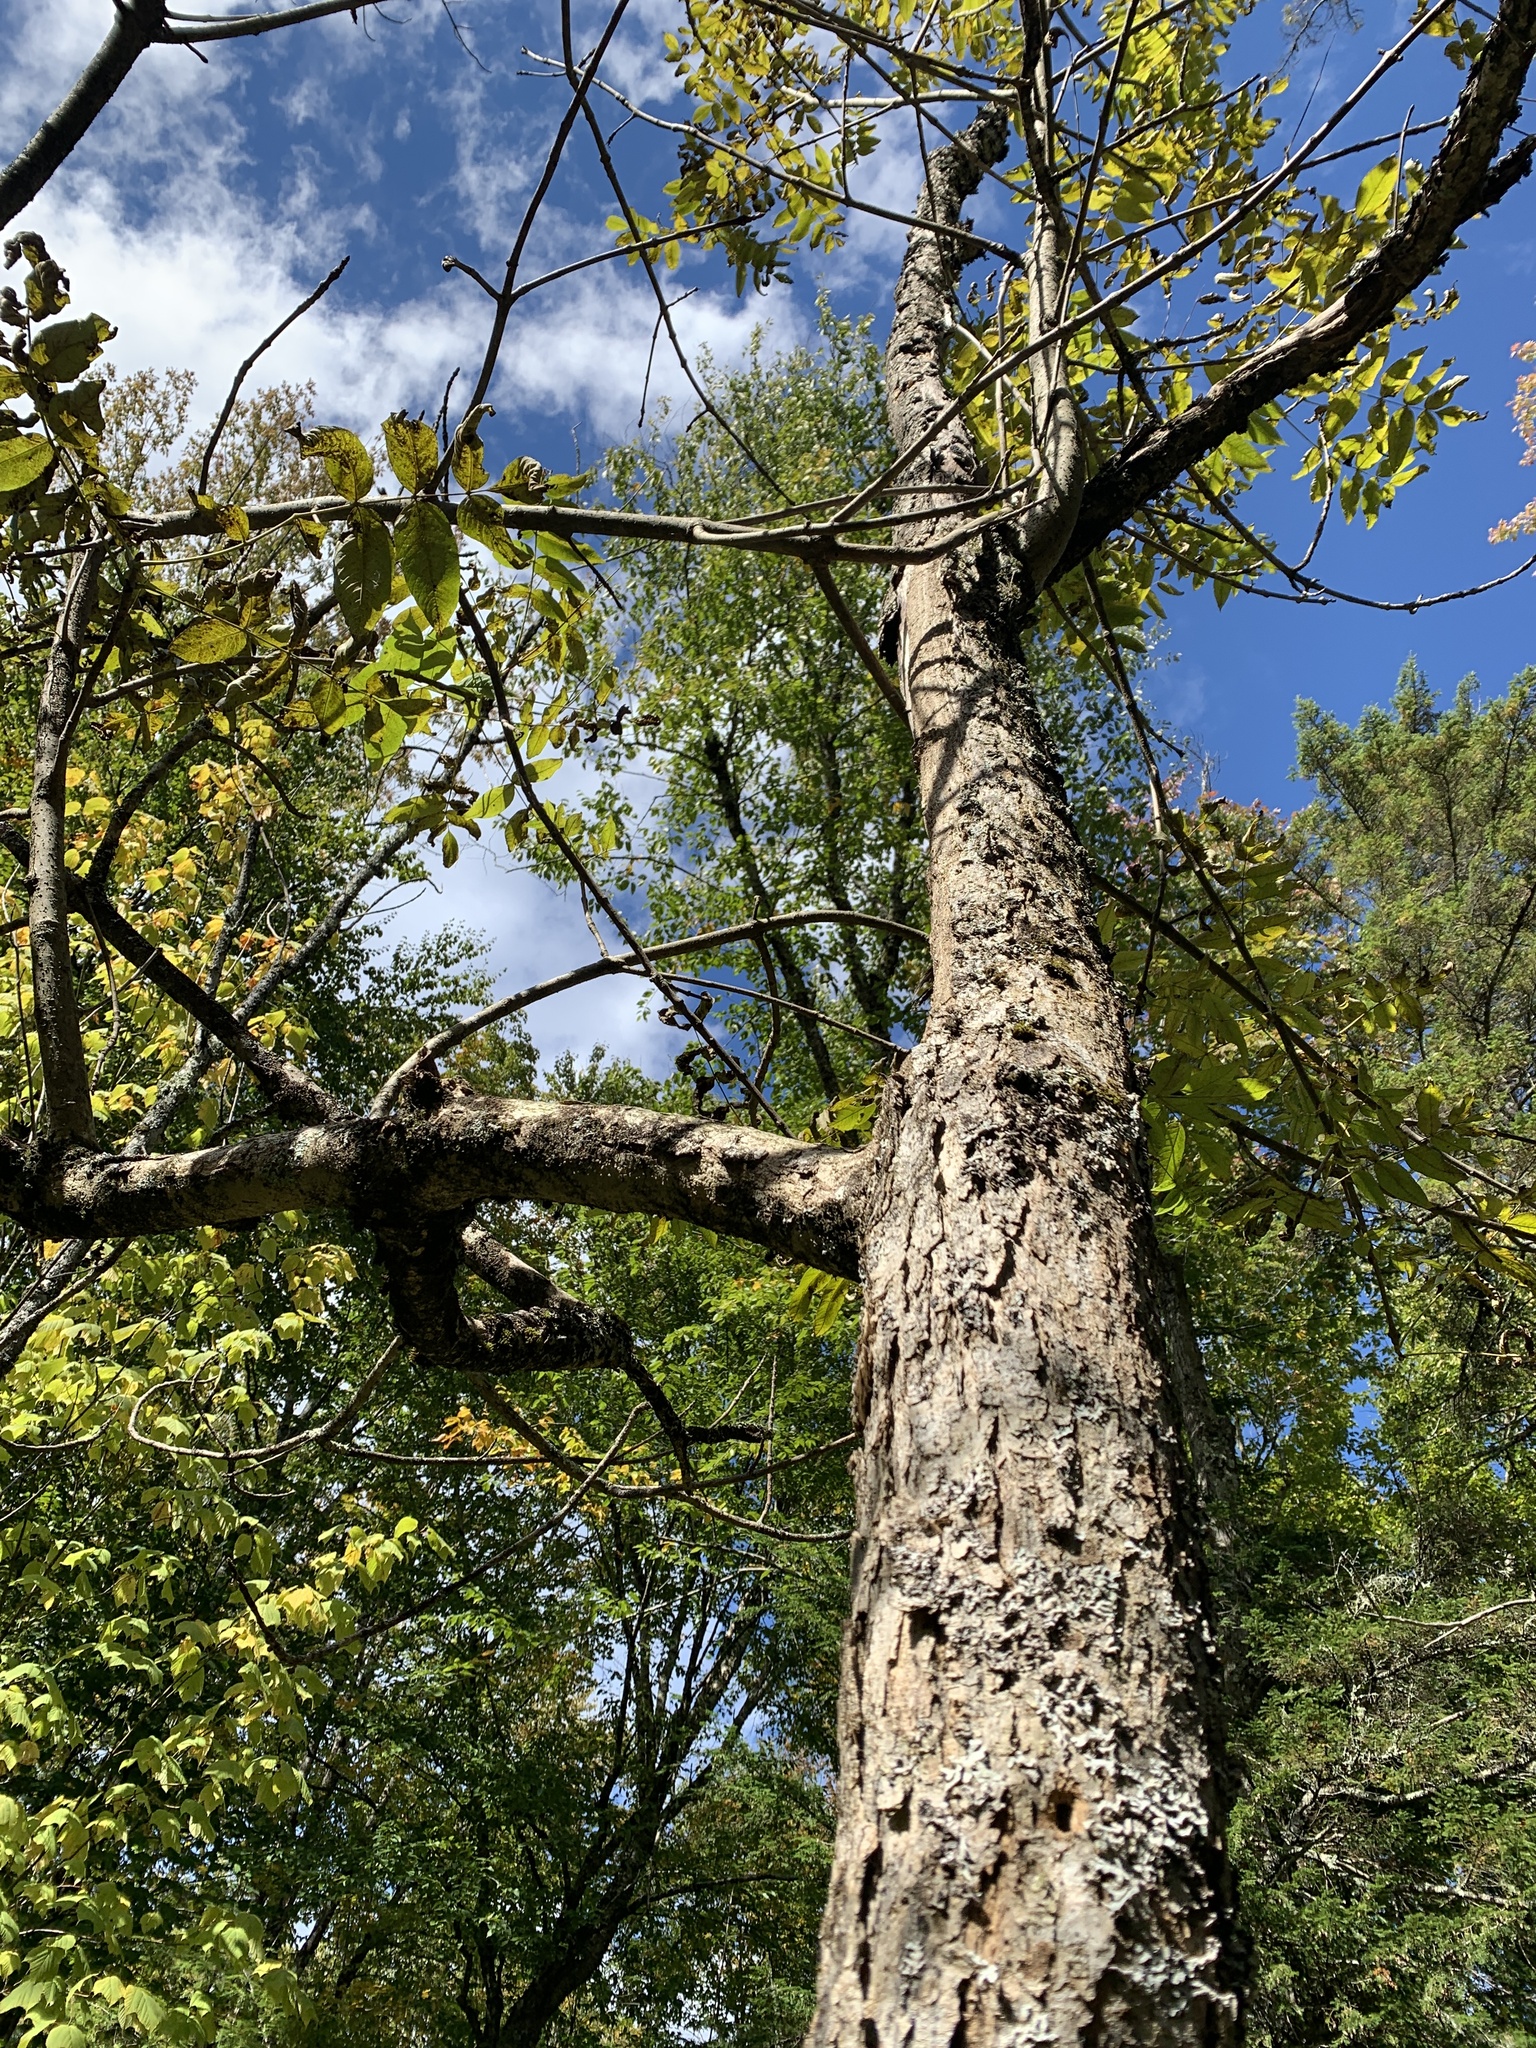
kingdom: Plantae
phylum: Tracheophyta
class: Magnoliopsida
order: Lamiales
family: Oleaceae
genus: Fraxinus
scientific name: Fraxinus nigra
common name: Black ash
